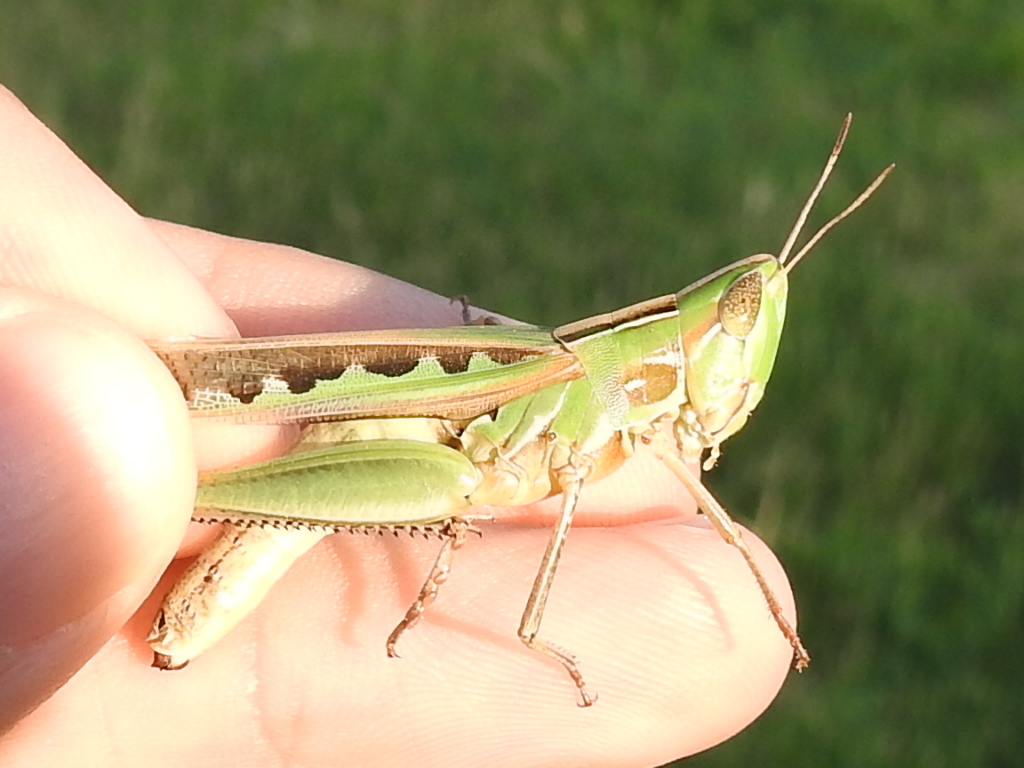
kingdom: Animalia
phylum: Arthropoda
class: Insecta
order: Orthoptera
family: Acrididae
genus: Syrbula
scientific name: Syrbula admirabilis
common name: Handsome grasshopper
